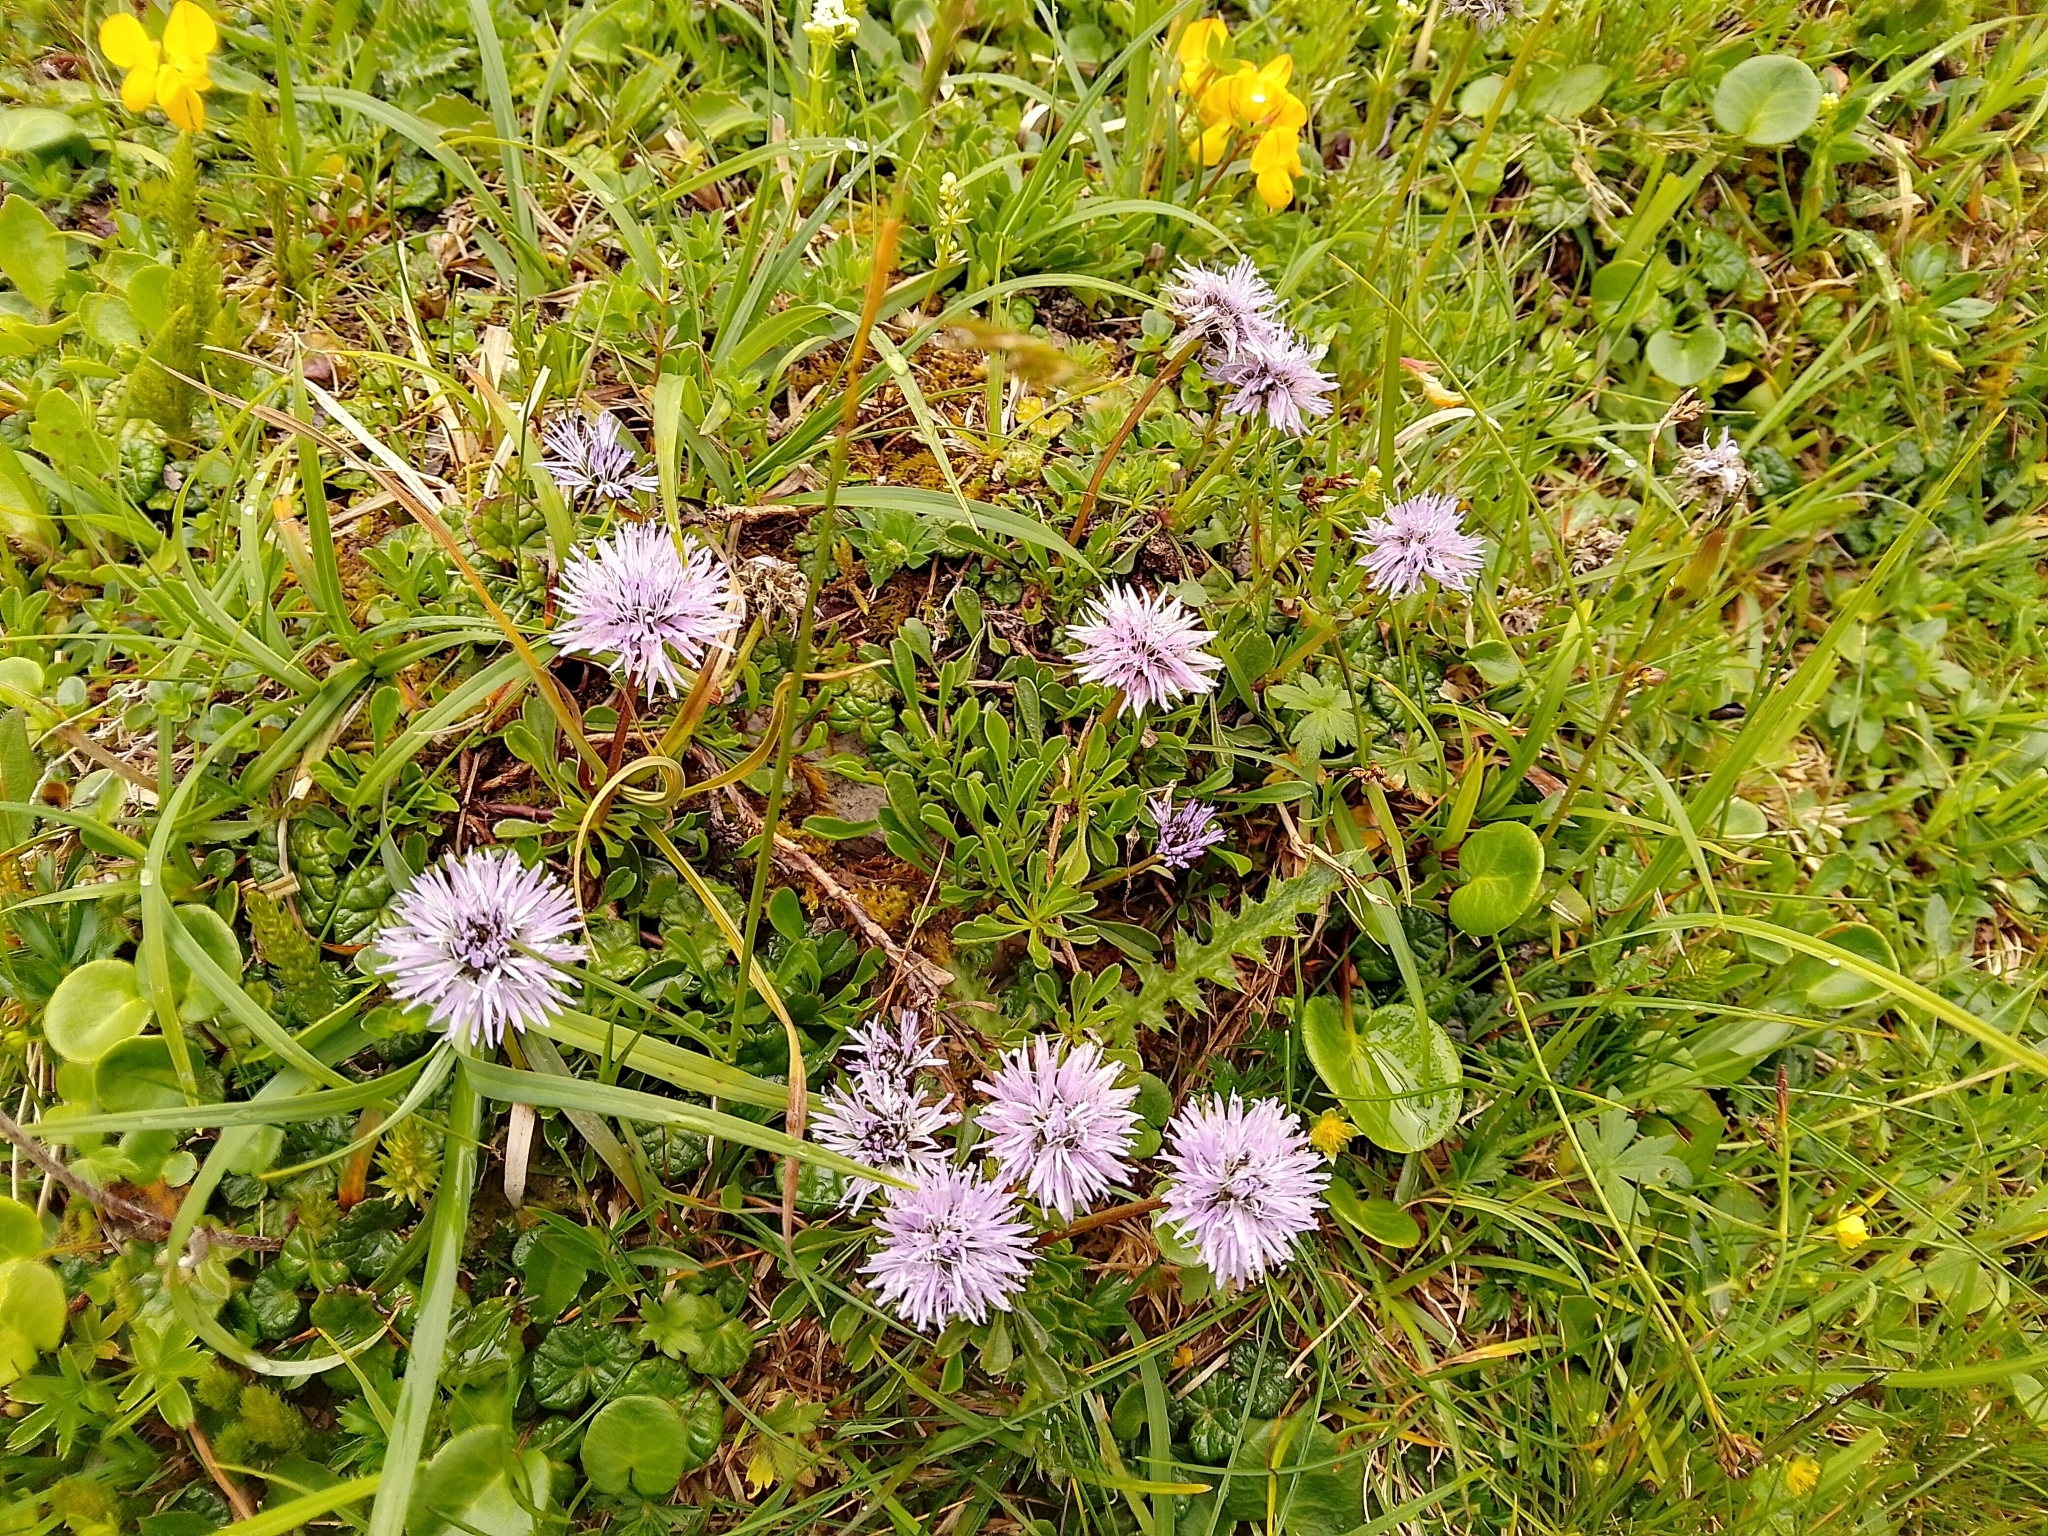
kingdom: Plantae
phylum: Tracheophyta
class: Magnoliopsida
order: Lamiales
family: Plantaginaceae
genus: Globularia
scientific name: Globularia cordifolia
